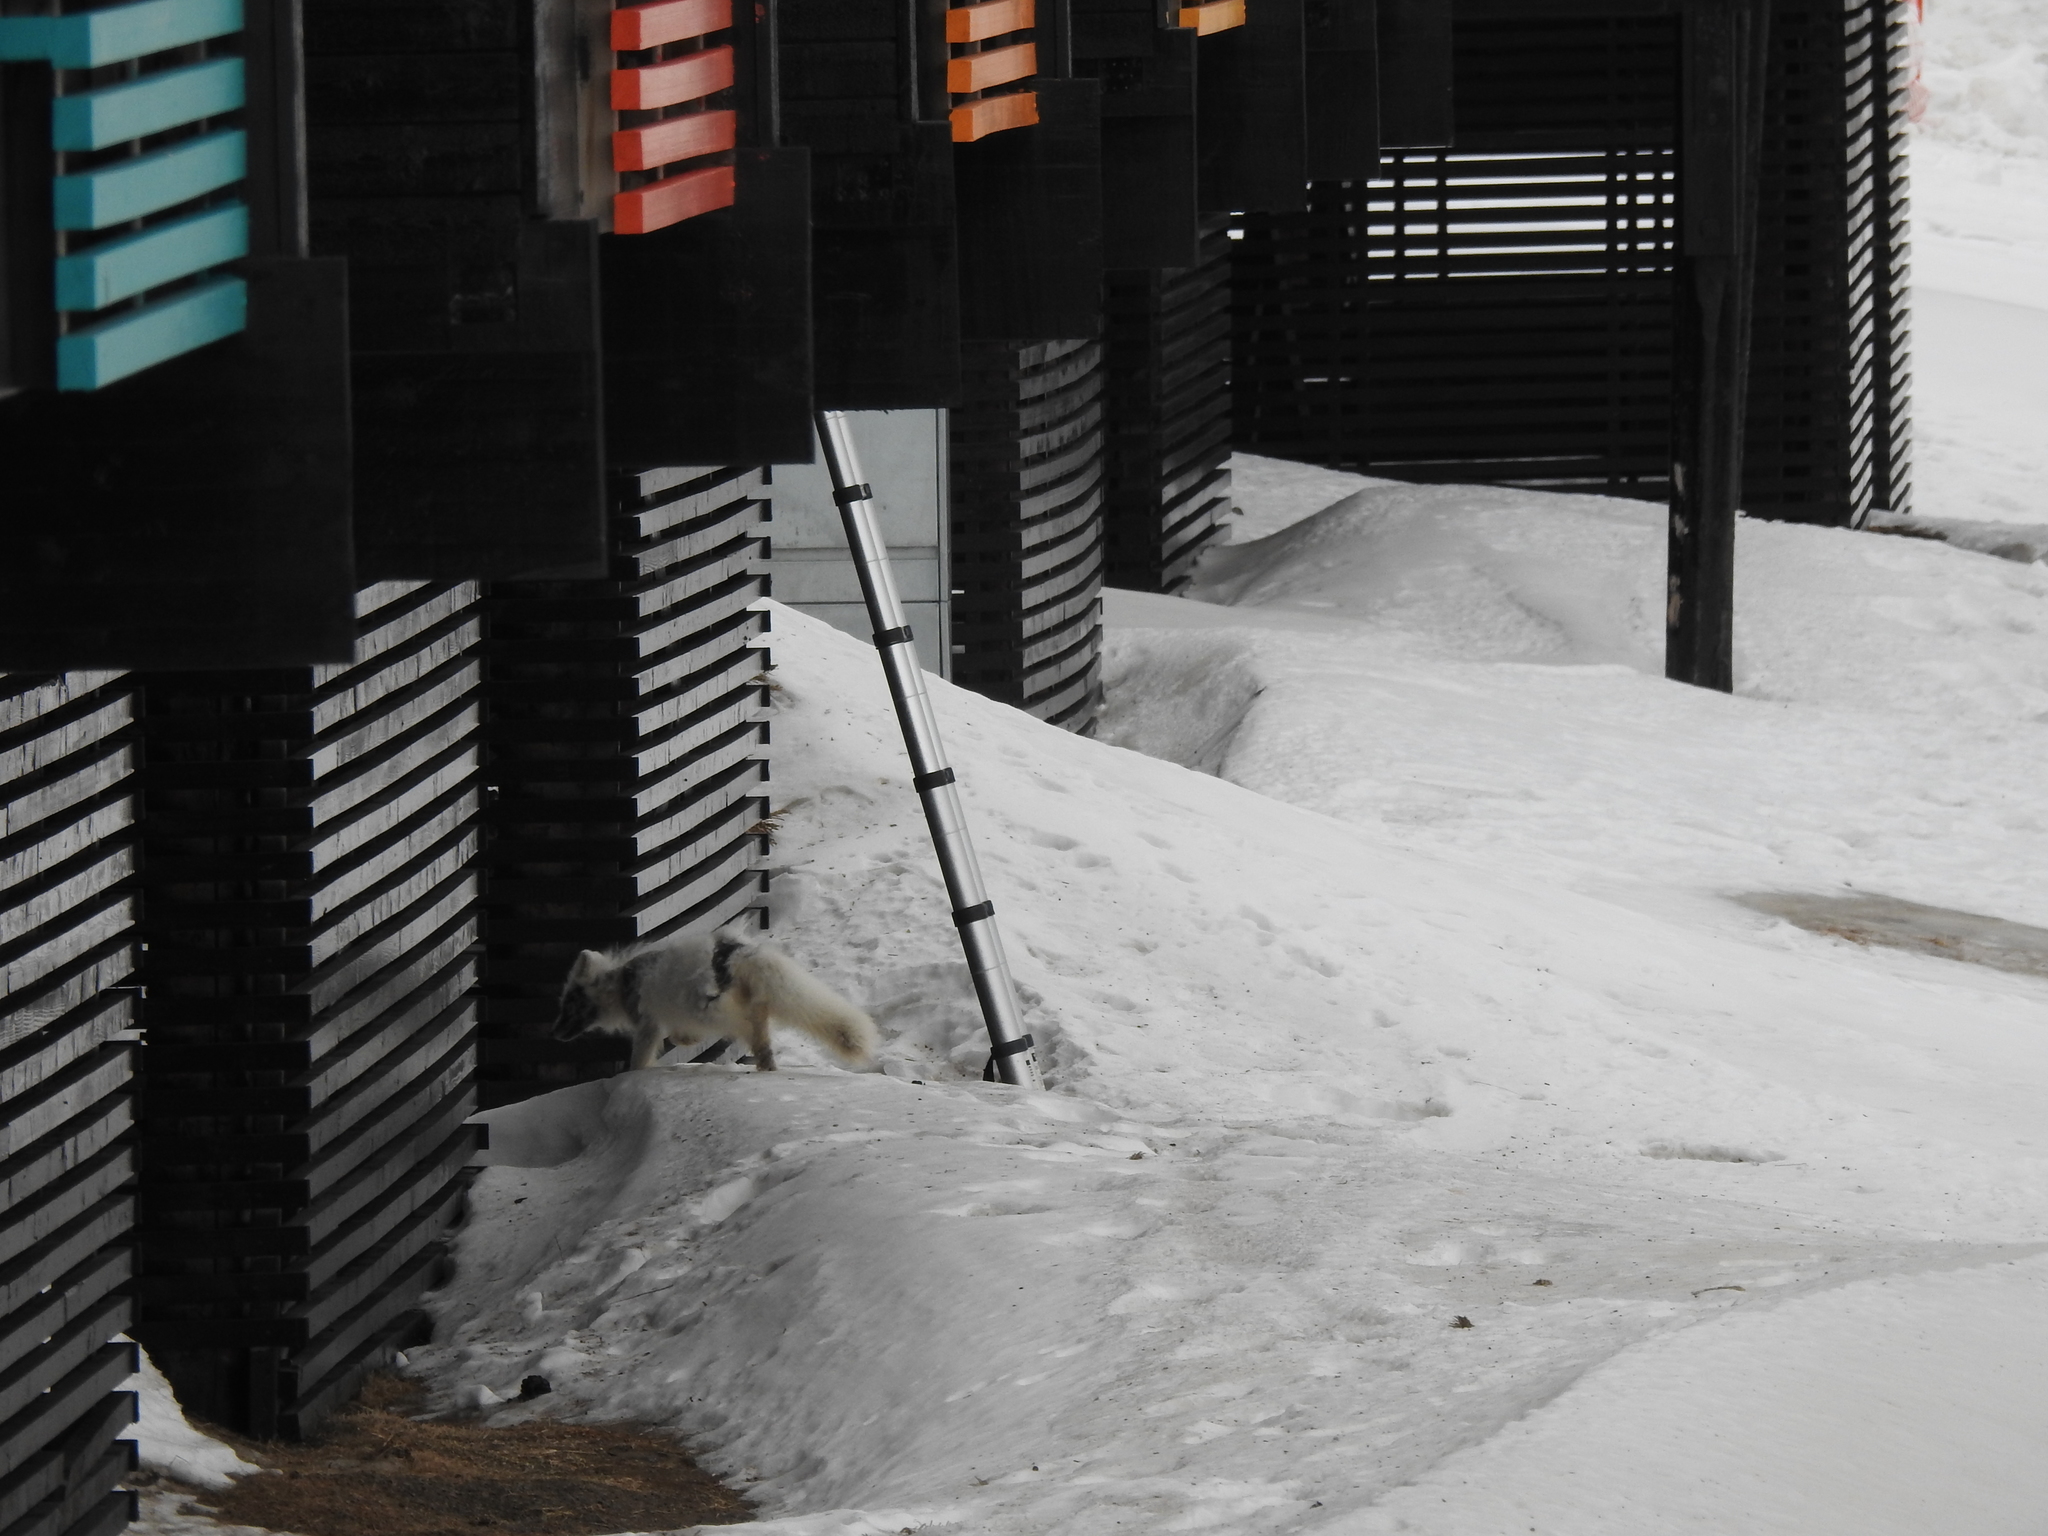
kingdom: Animalia
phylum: Chordata
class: Mammalia
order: Carnivora
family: Canidae
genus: Vulpes
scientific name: Vulpes lagopus
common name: Arctic fox
